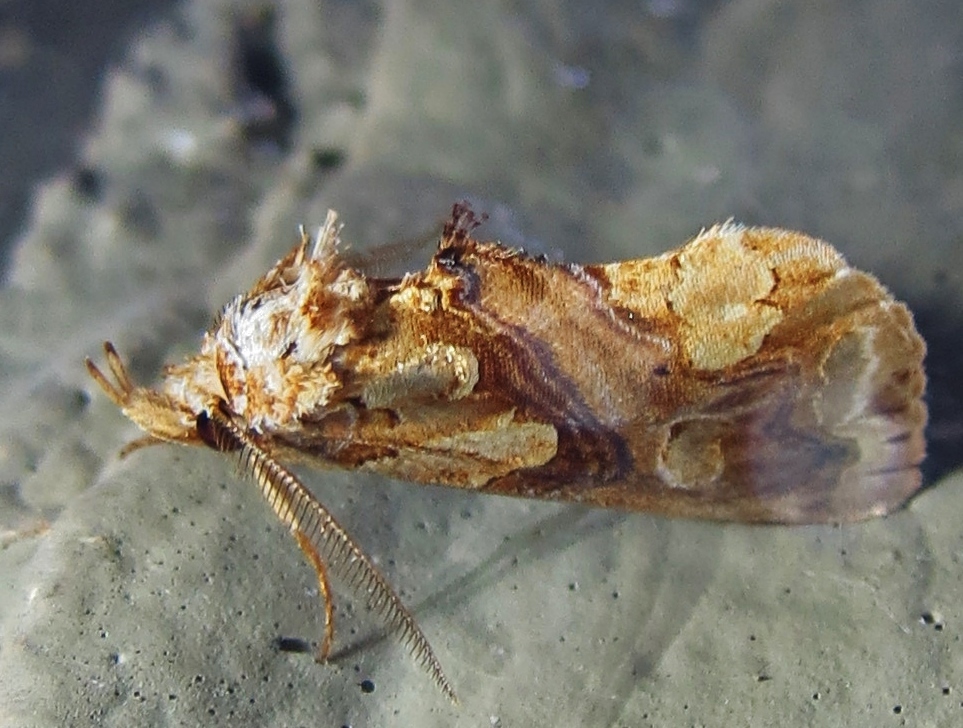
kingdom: Animalia
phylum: Arthropoda
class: Insecta
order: Lepidoptera
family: Erebidae
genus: Plusiodonta
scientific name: Plusiodonta compressipalpis
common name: Moonseed moth
